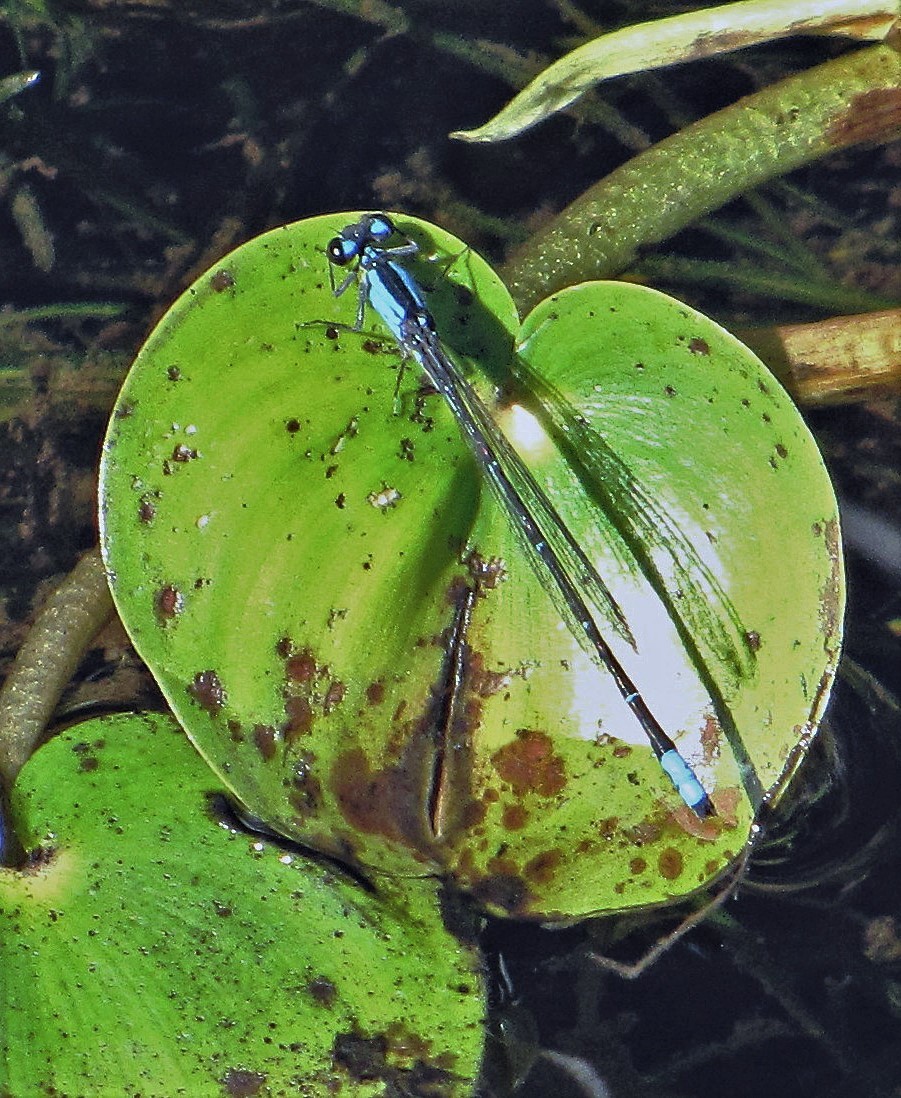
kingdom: Animalia
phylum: Arthropoda
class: Insecta
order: Odonata
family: Coenagrionidae
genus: Oxyagrion
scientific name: Oxyagrion ablutum
